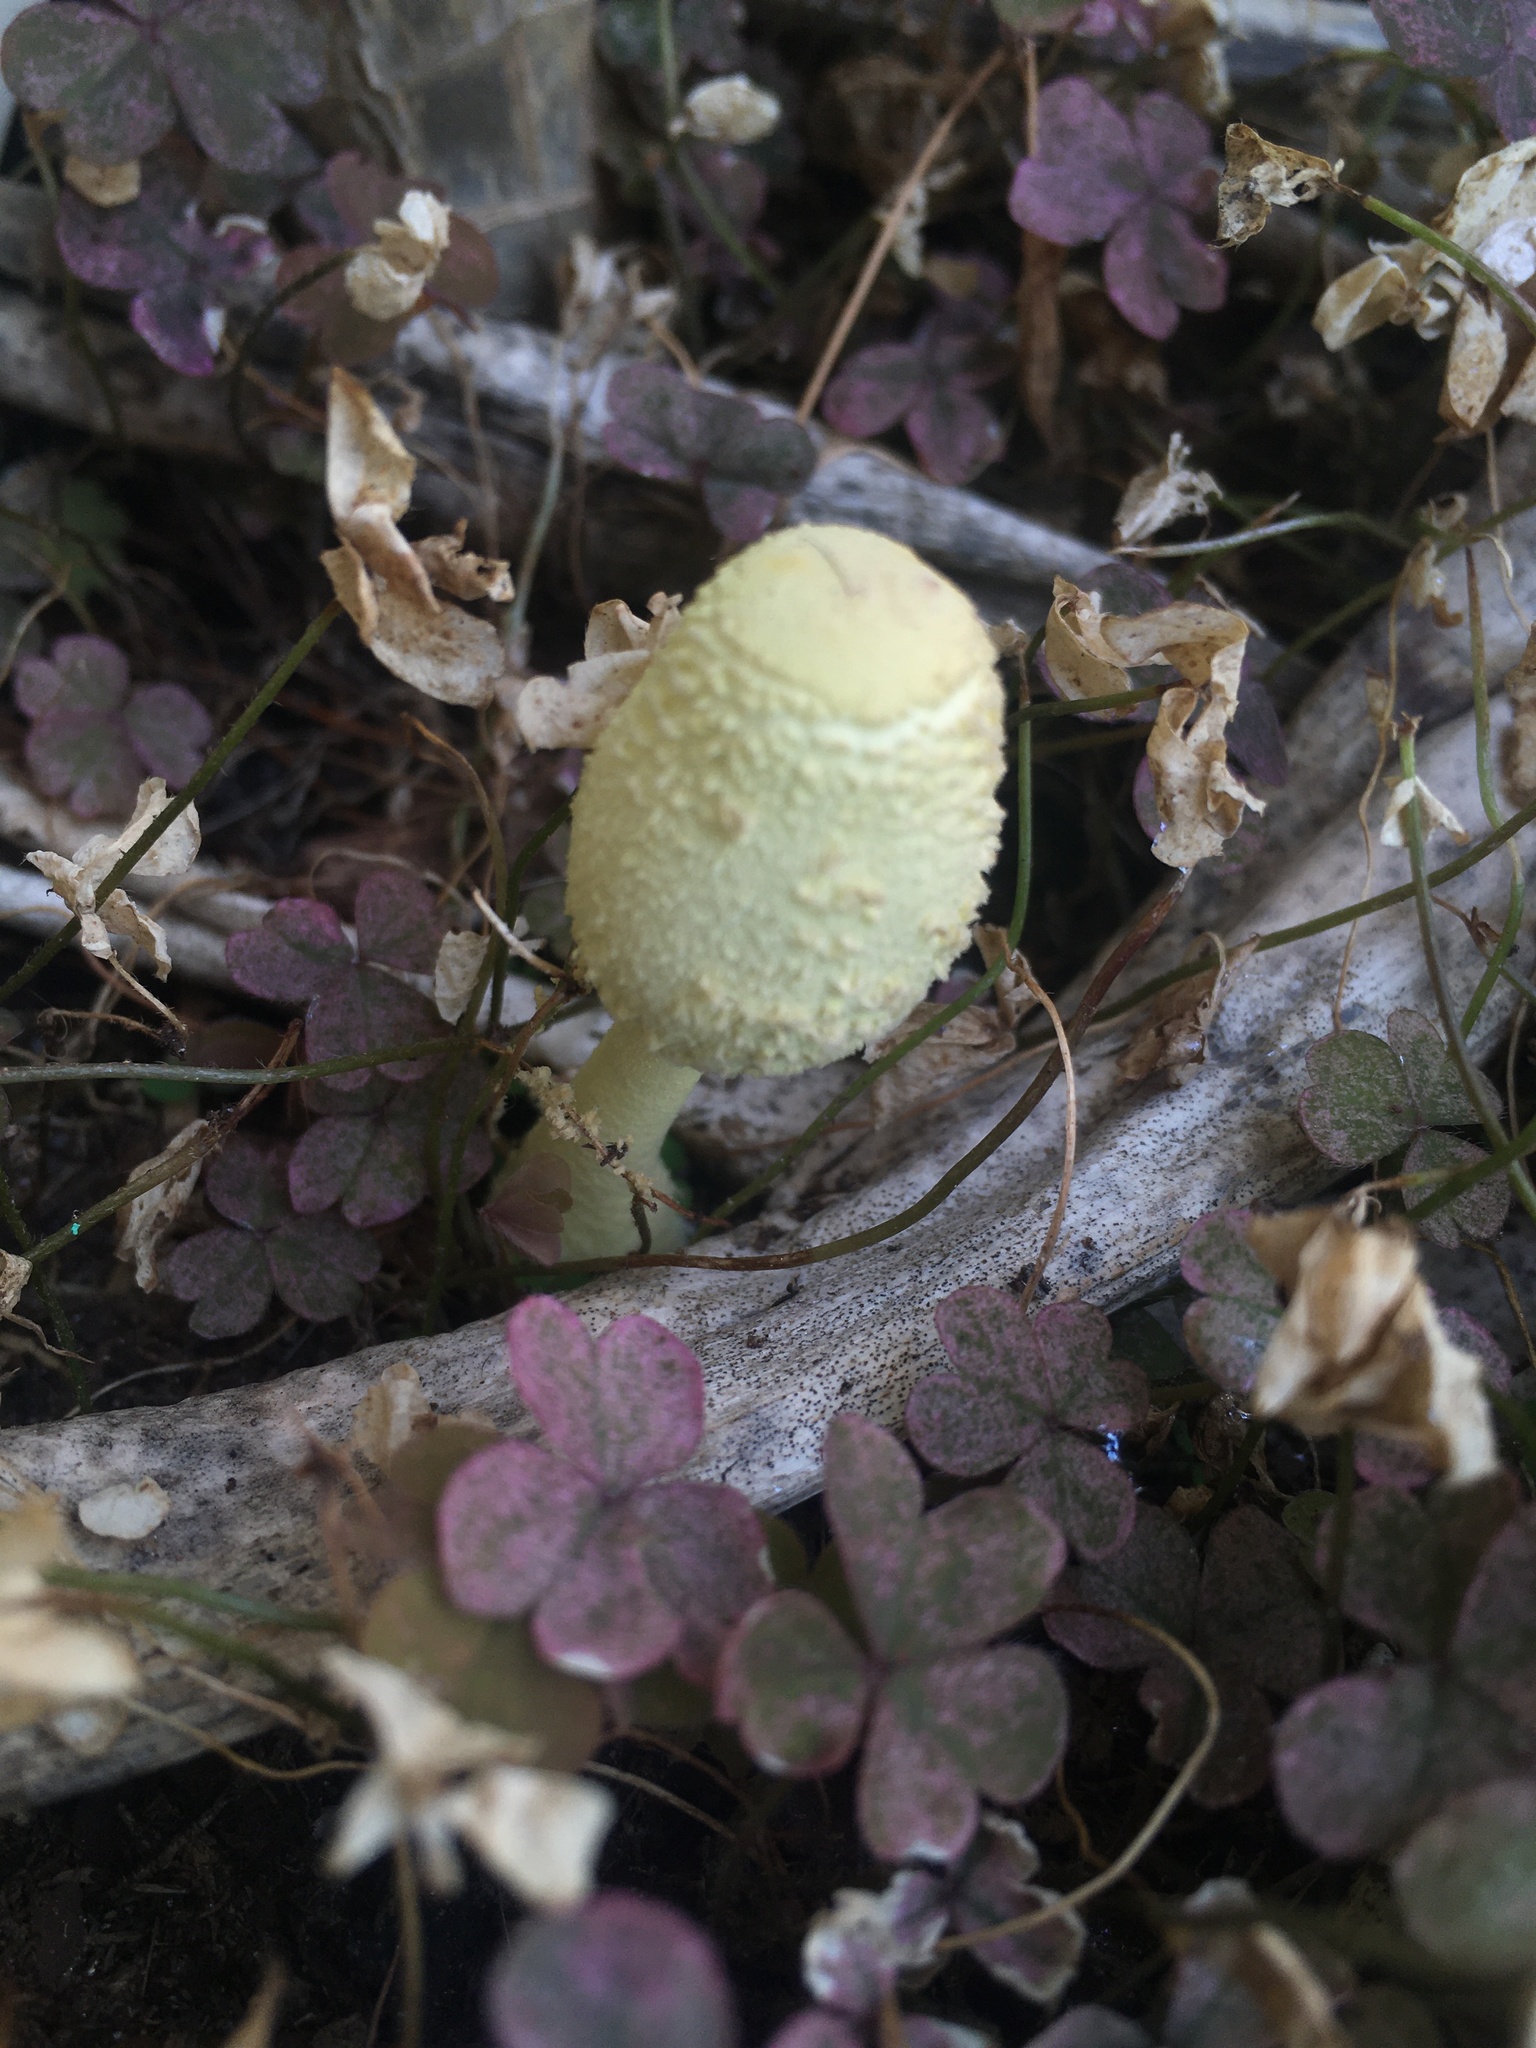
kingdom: Fungi
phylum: Basidiomycota
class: Agaricomycetes
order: Agaricales
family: Agaricaceae
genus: Leucocoprinus
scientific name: Leucocoprinus birnbaumii
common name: Plantpot dapperling
